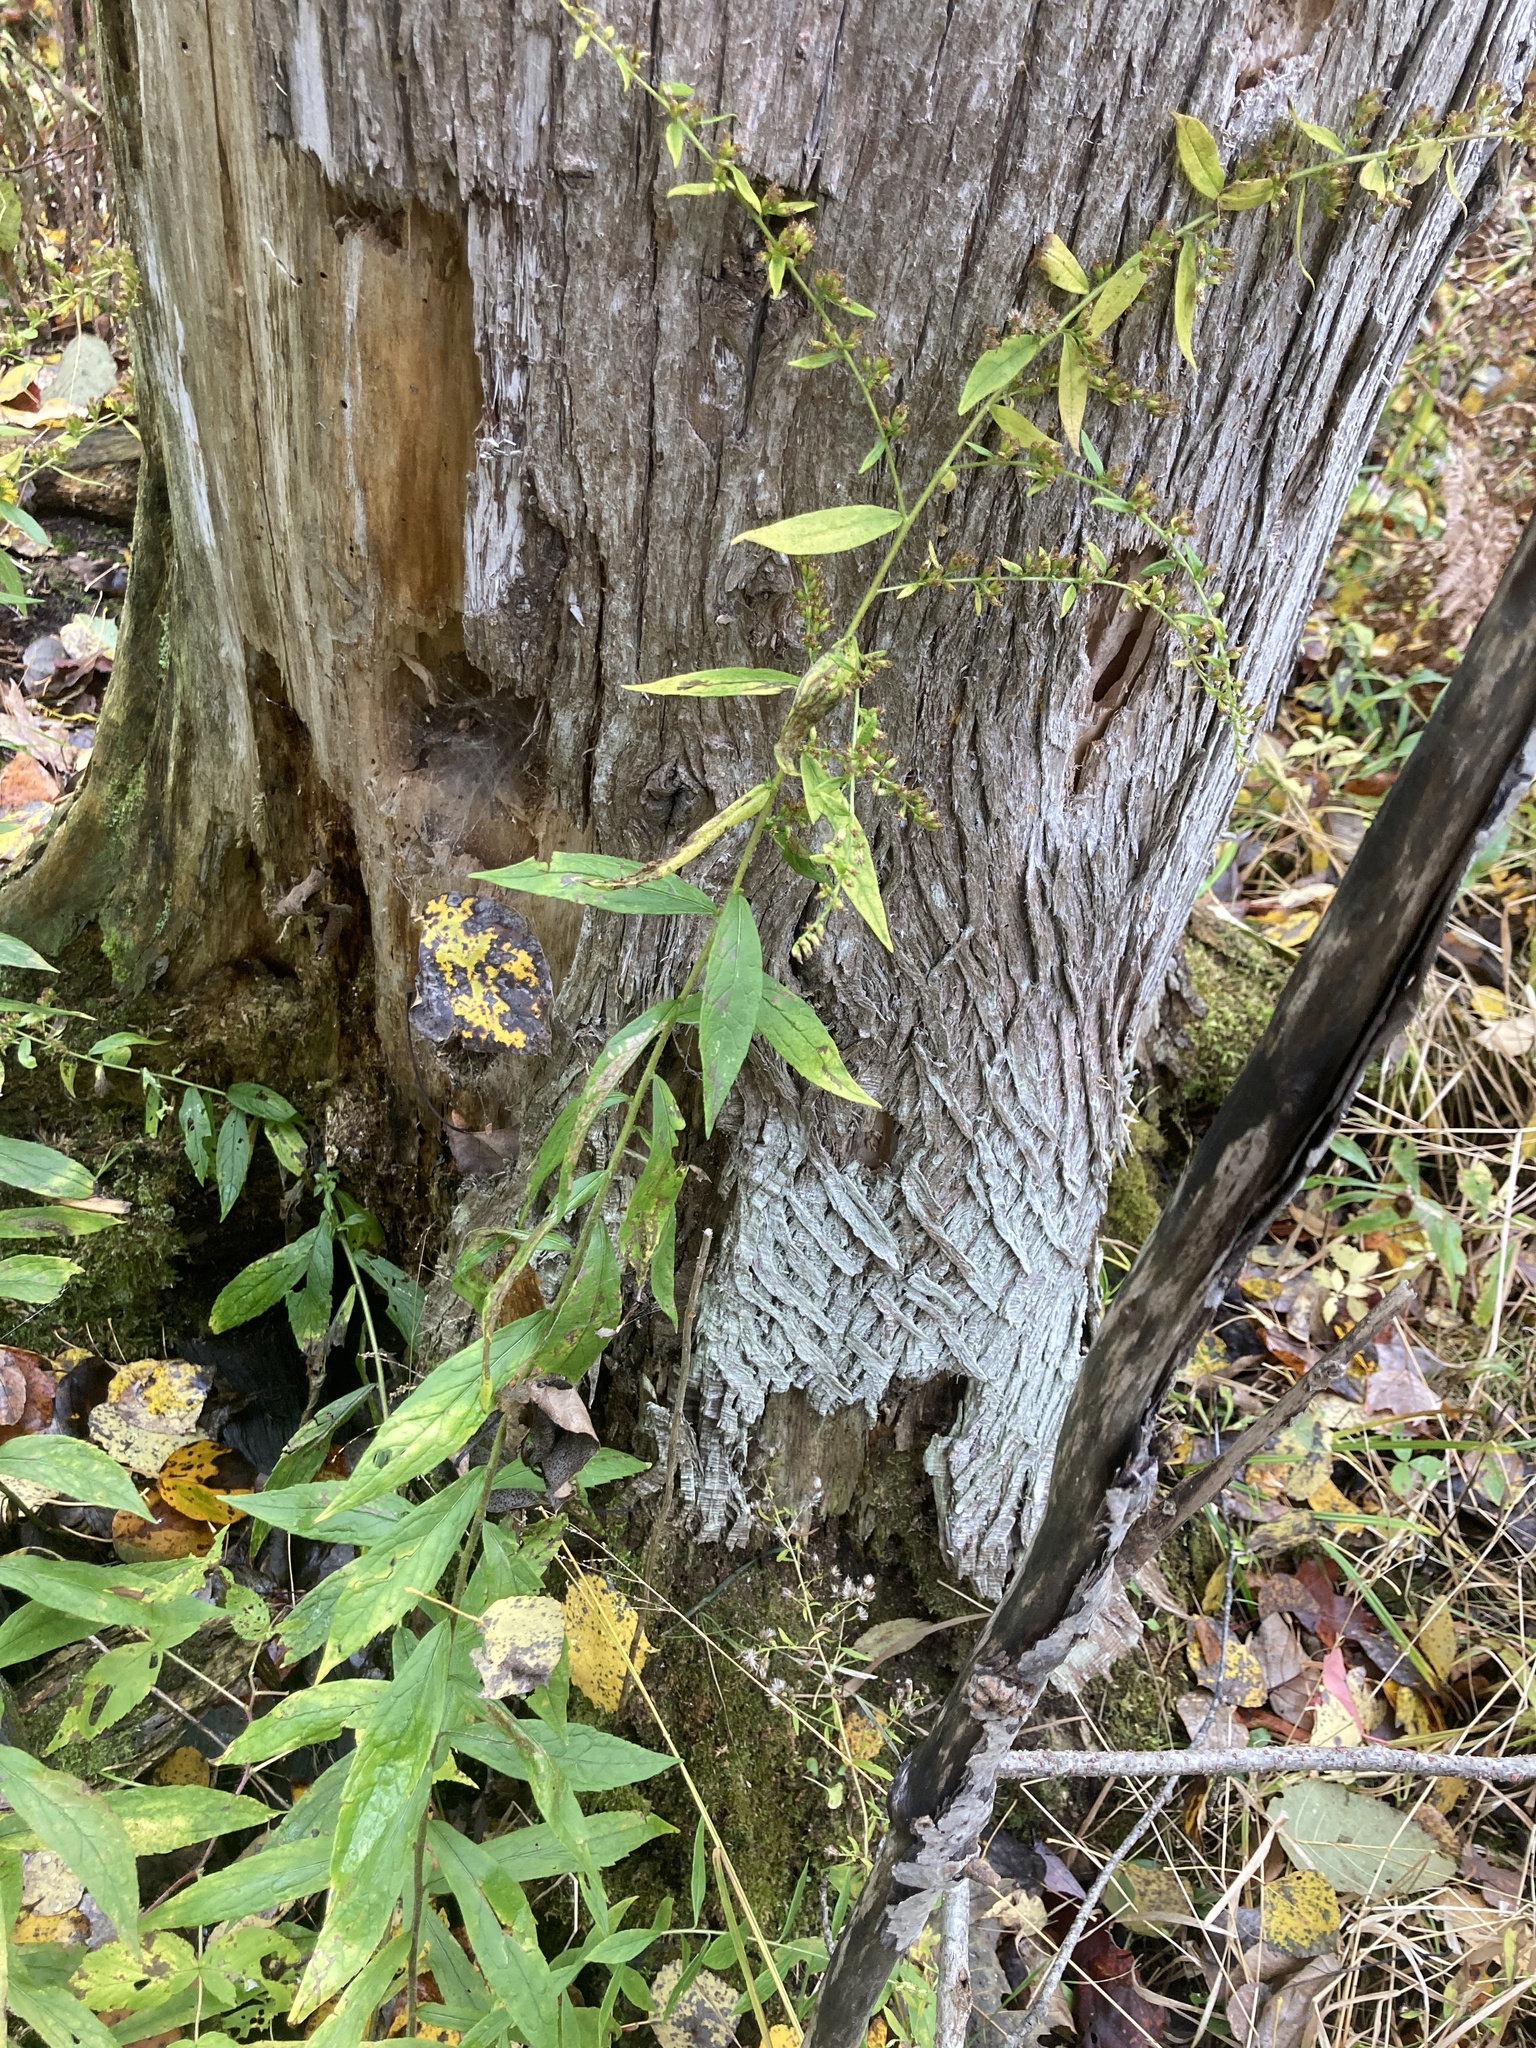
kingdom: Plantae
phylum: Tracheophyta
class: Magnoliopsida
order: Asterales
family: Asteraceae
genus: Solidago
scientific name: Solidago rugosa
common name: Rough-stemmed goldenrod
